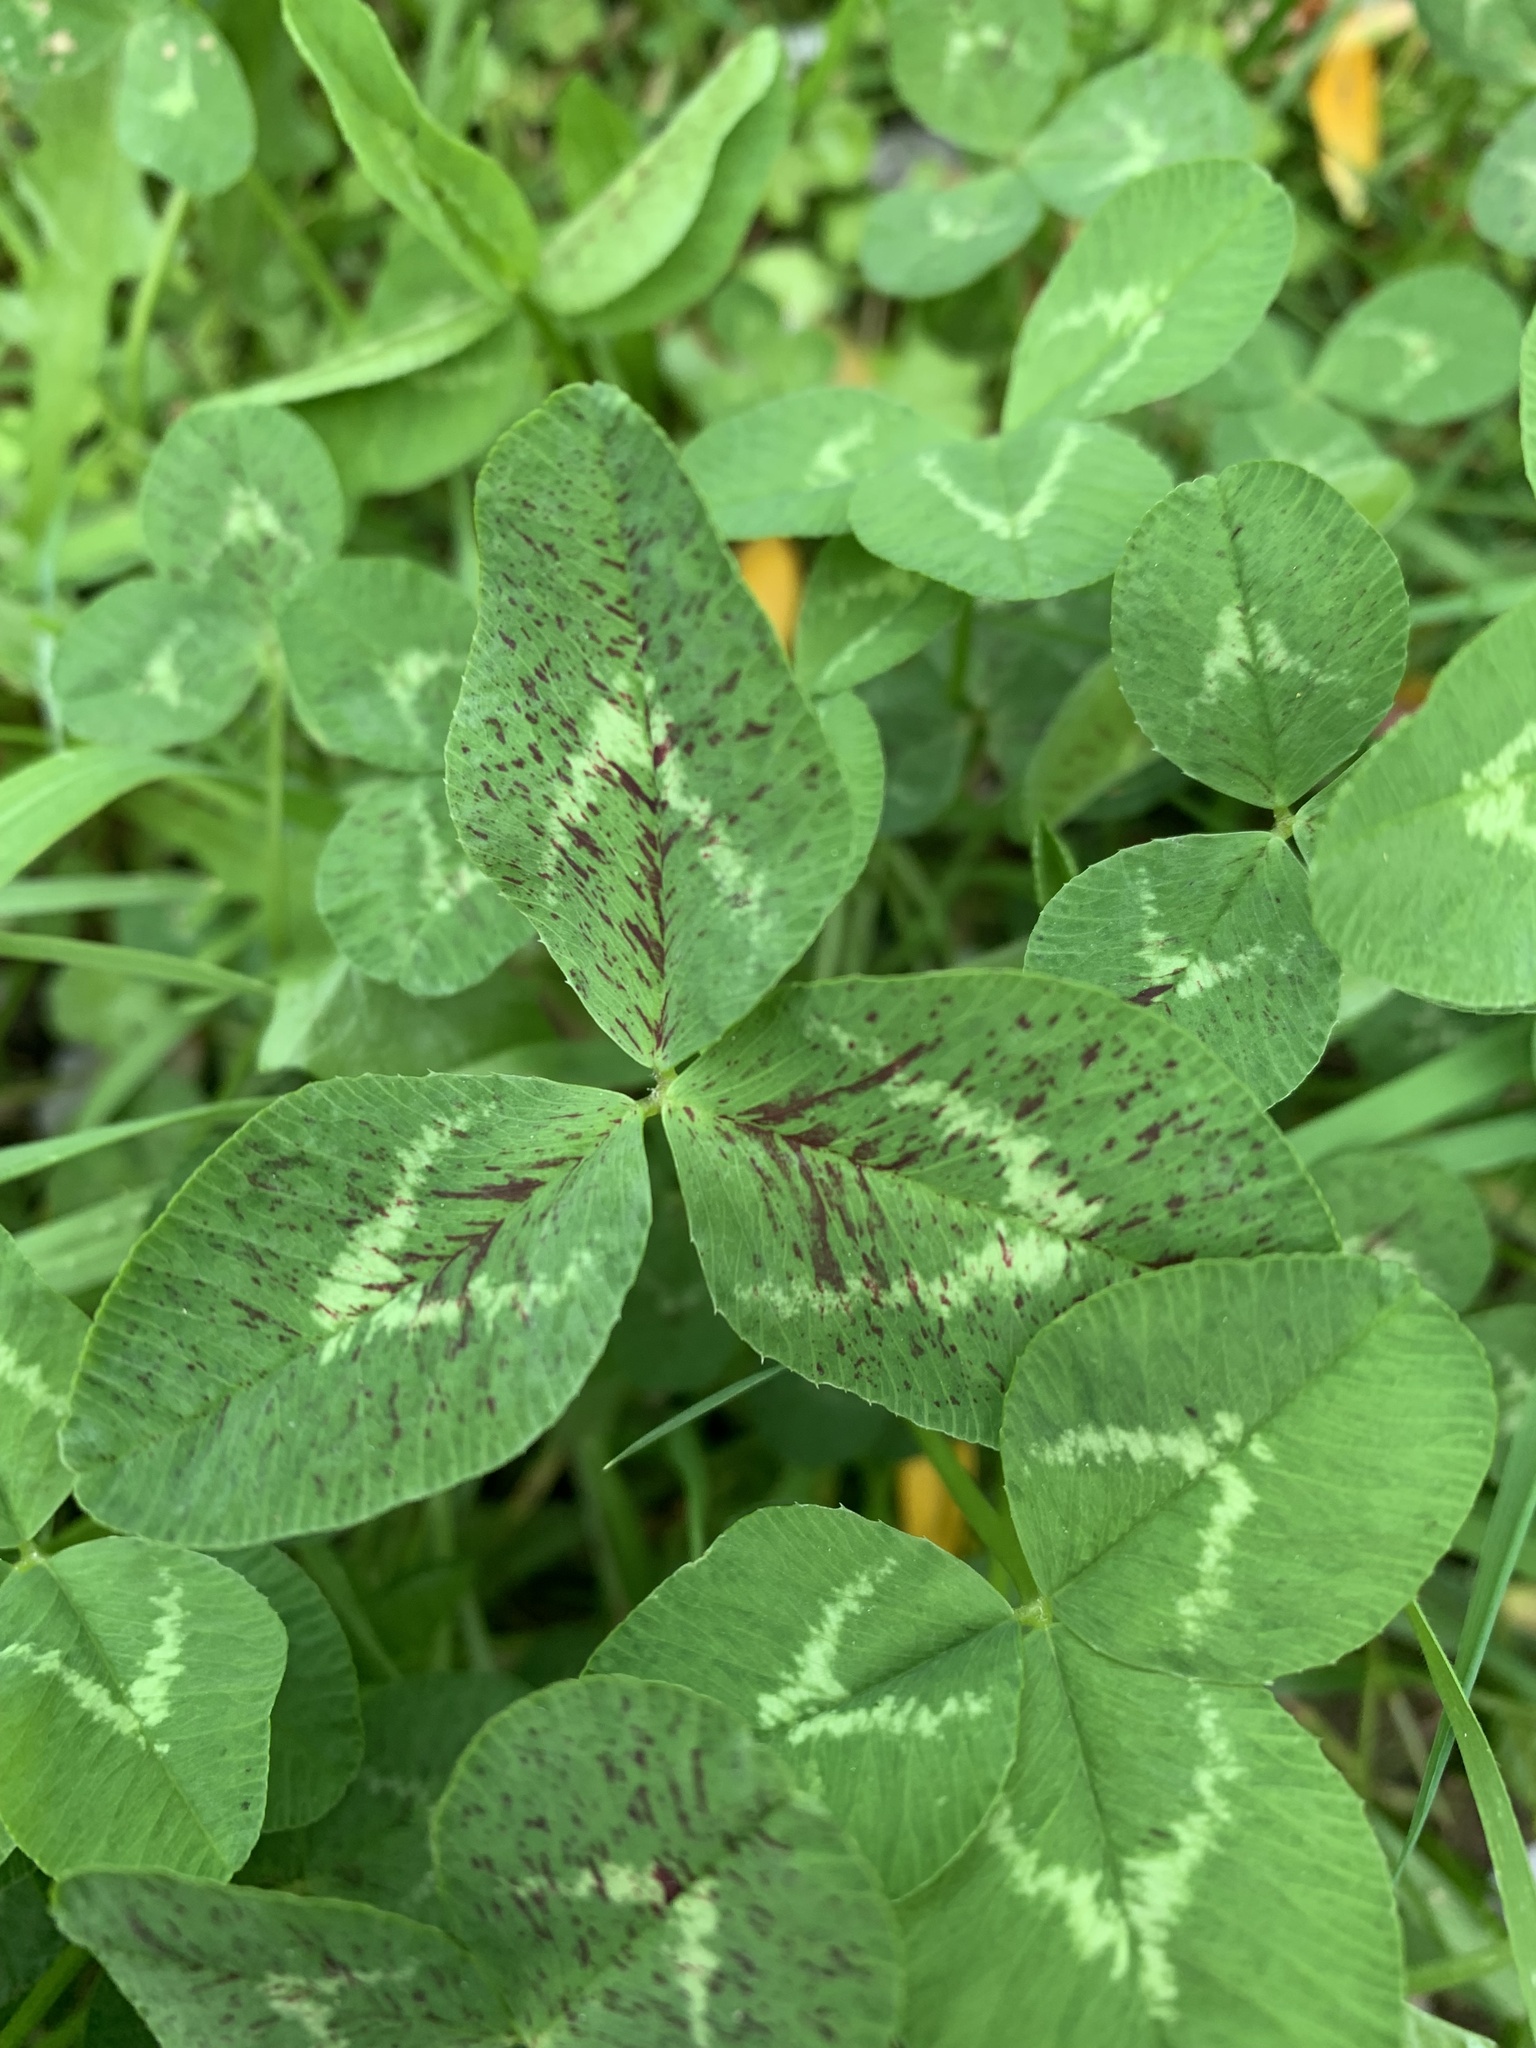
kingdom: Plantae
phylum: Tracheophyta
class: Magnoliopsida
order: Fabales
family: Fabaceae
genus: Trifolium
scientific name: Trifolium pratense
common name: Red clover
